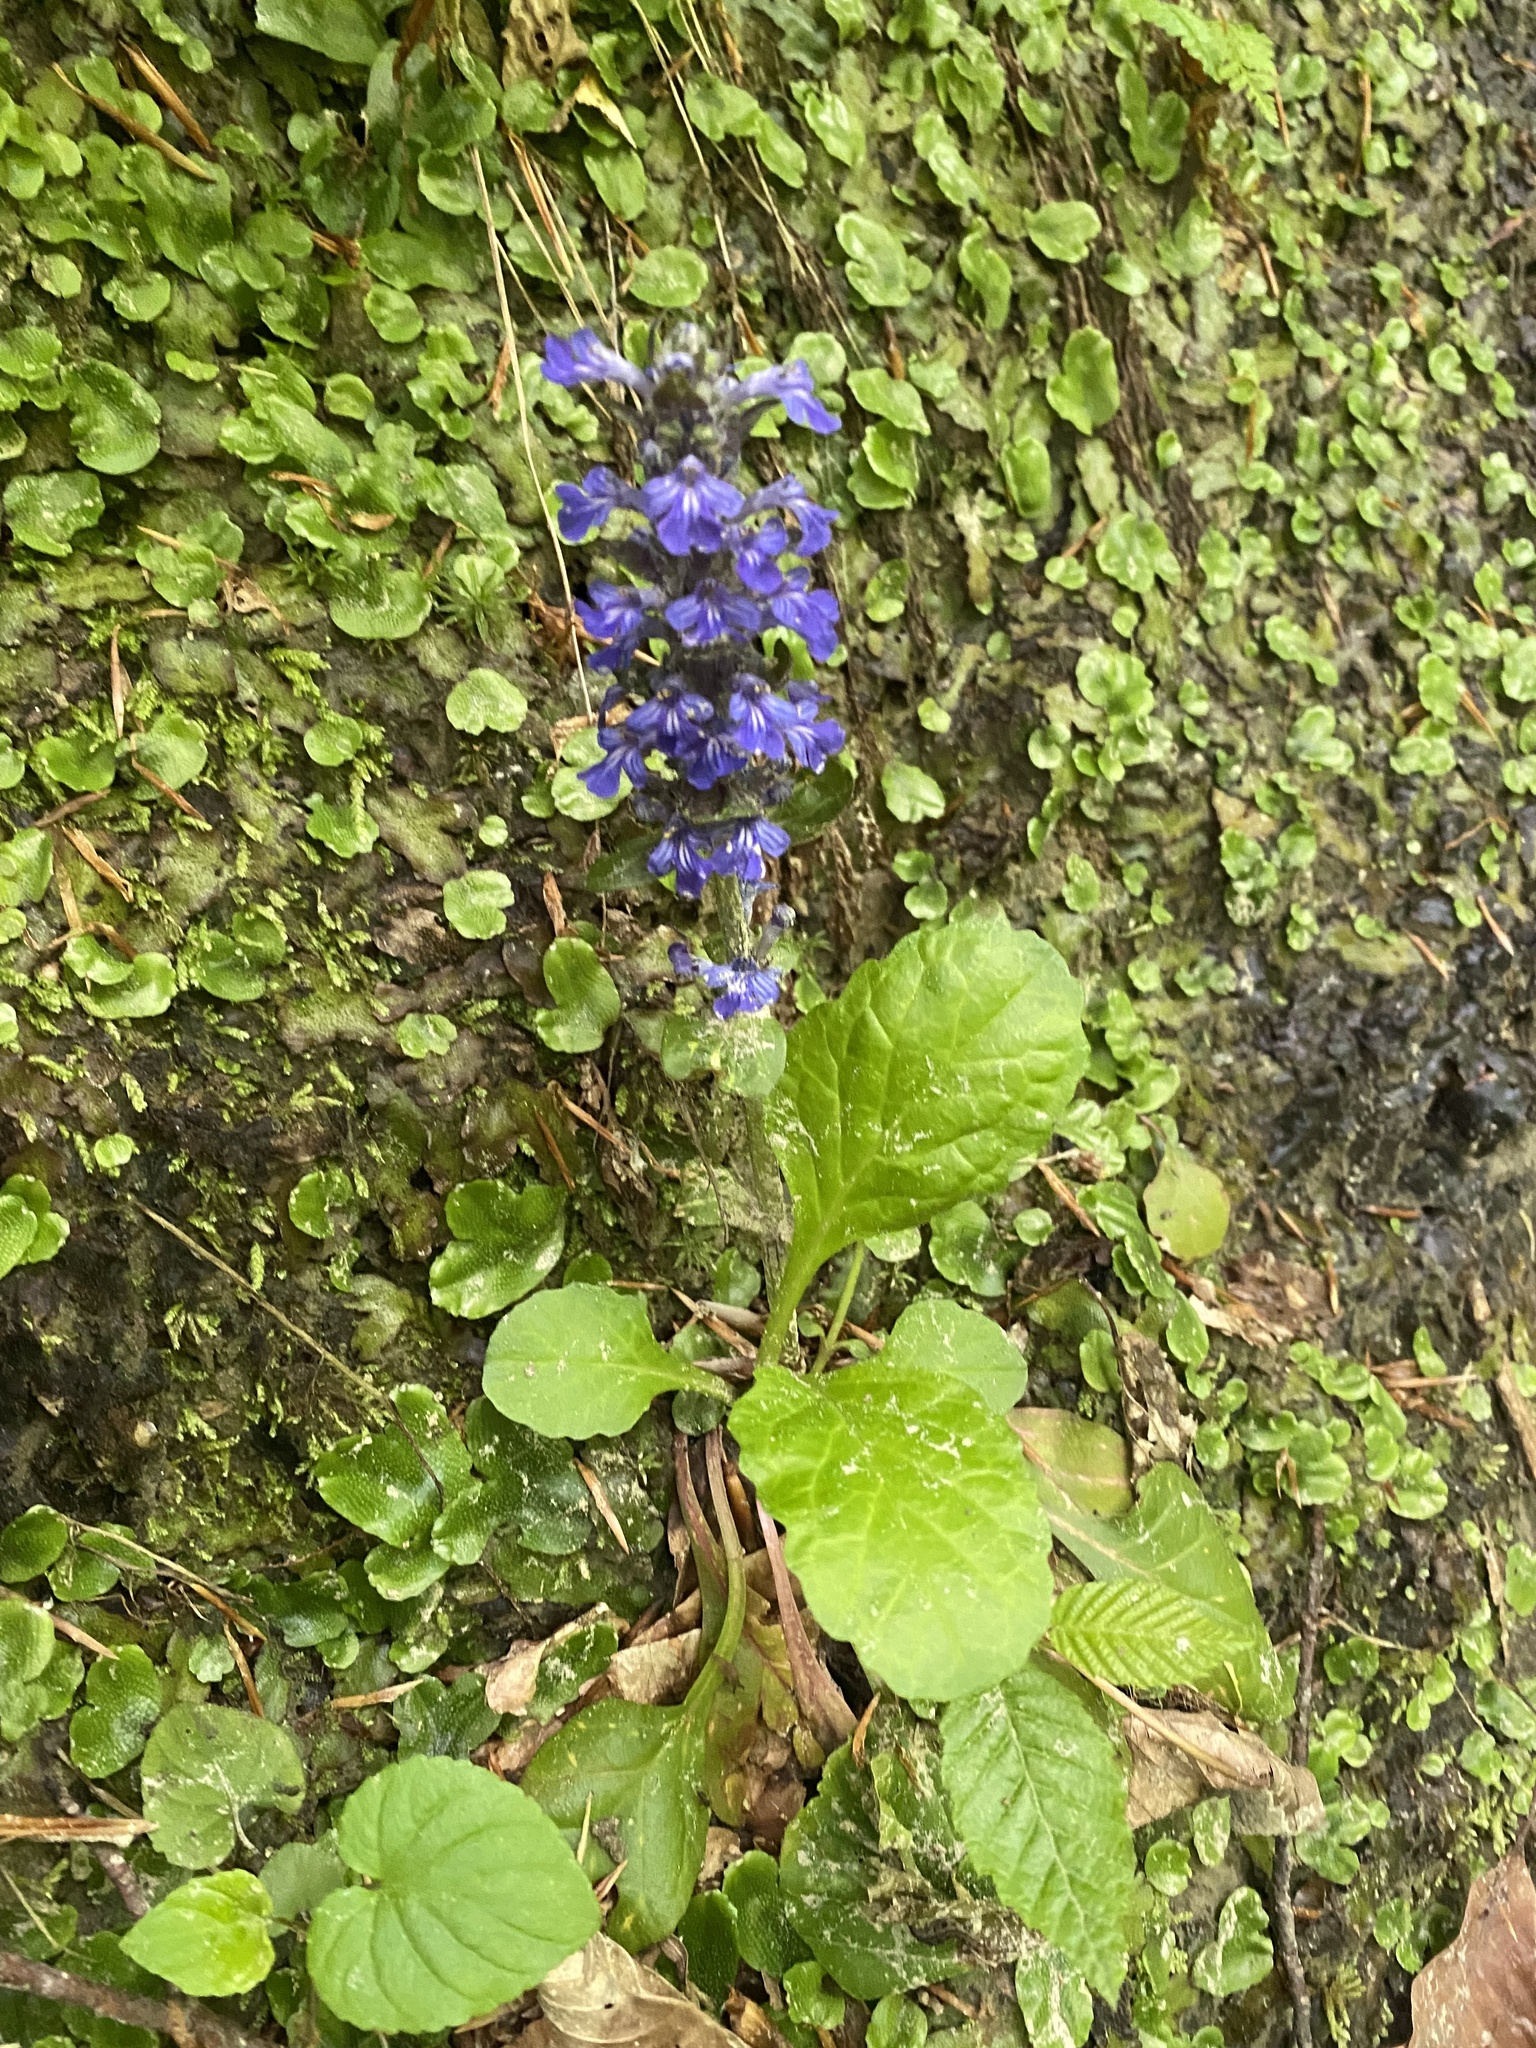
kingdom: Plantae
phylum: Tracheophyta
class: Magnoliopsida
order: Lamiales
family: Lamiaceae
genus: Ajuga
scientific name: Ajuga reptans
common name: Bugle
